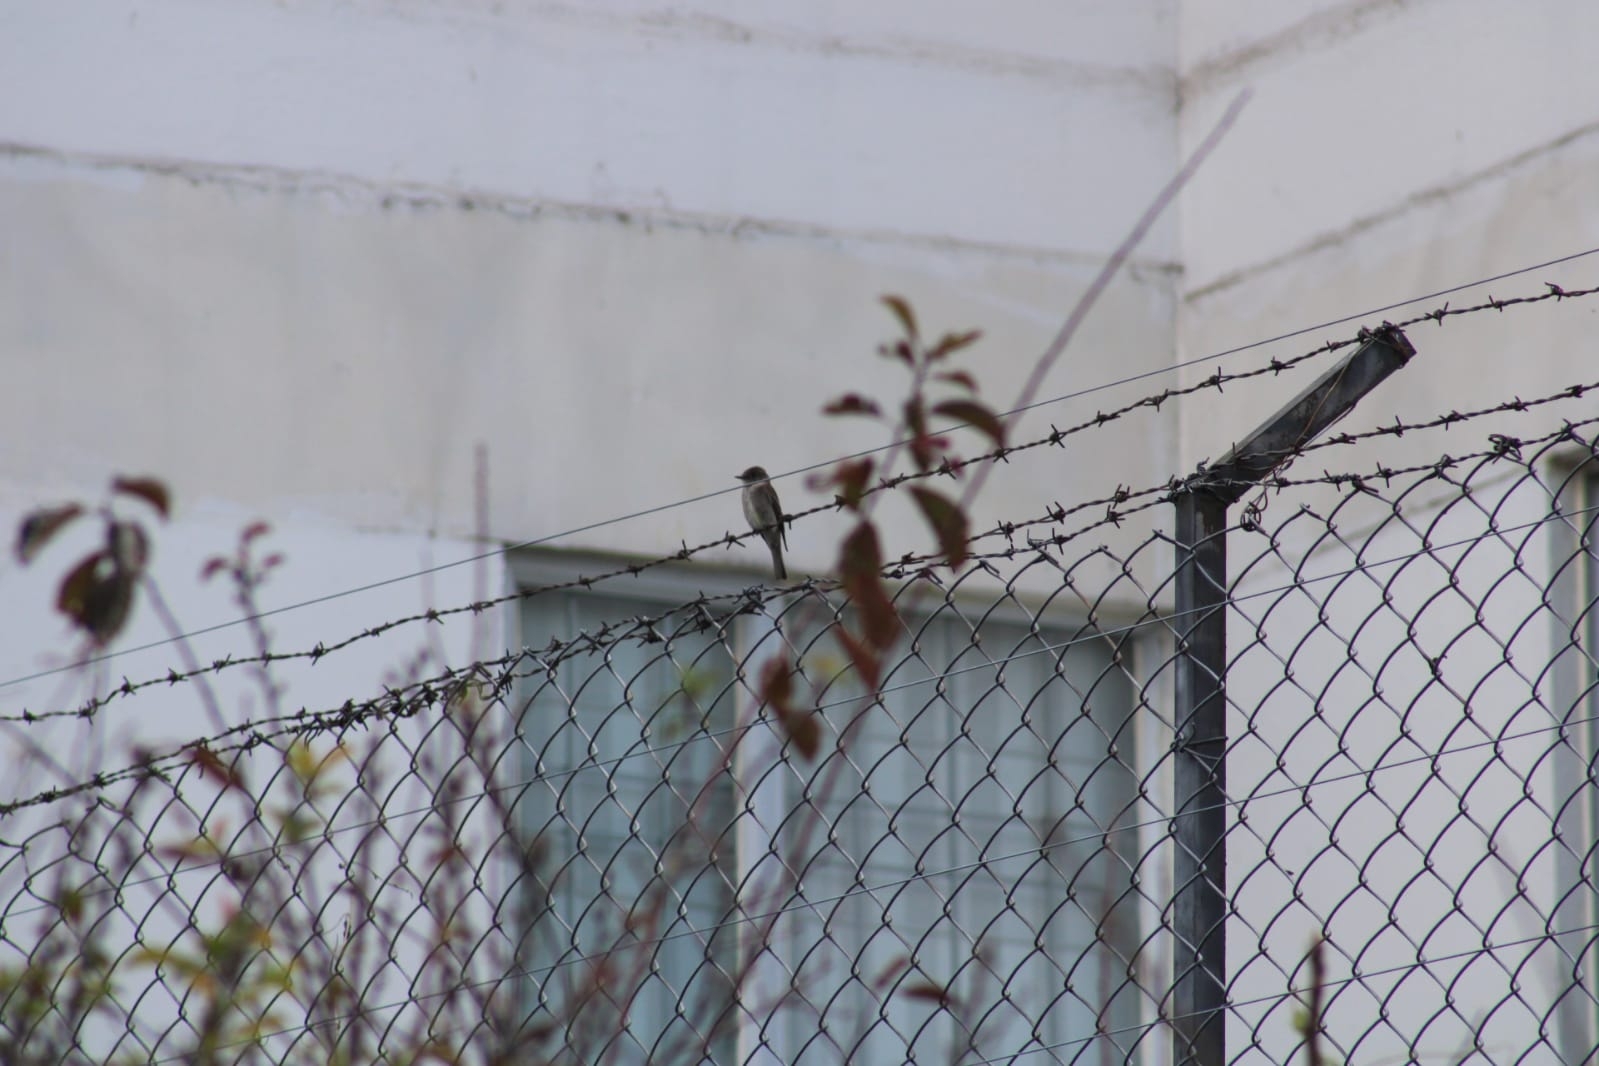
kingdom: Animalia
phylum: Chordata
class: Aves
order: Passeriformes
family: Tyrannidae
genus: Contopus
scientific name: Contopus cinereus
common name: Tropical pewee
